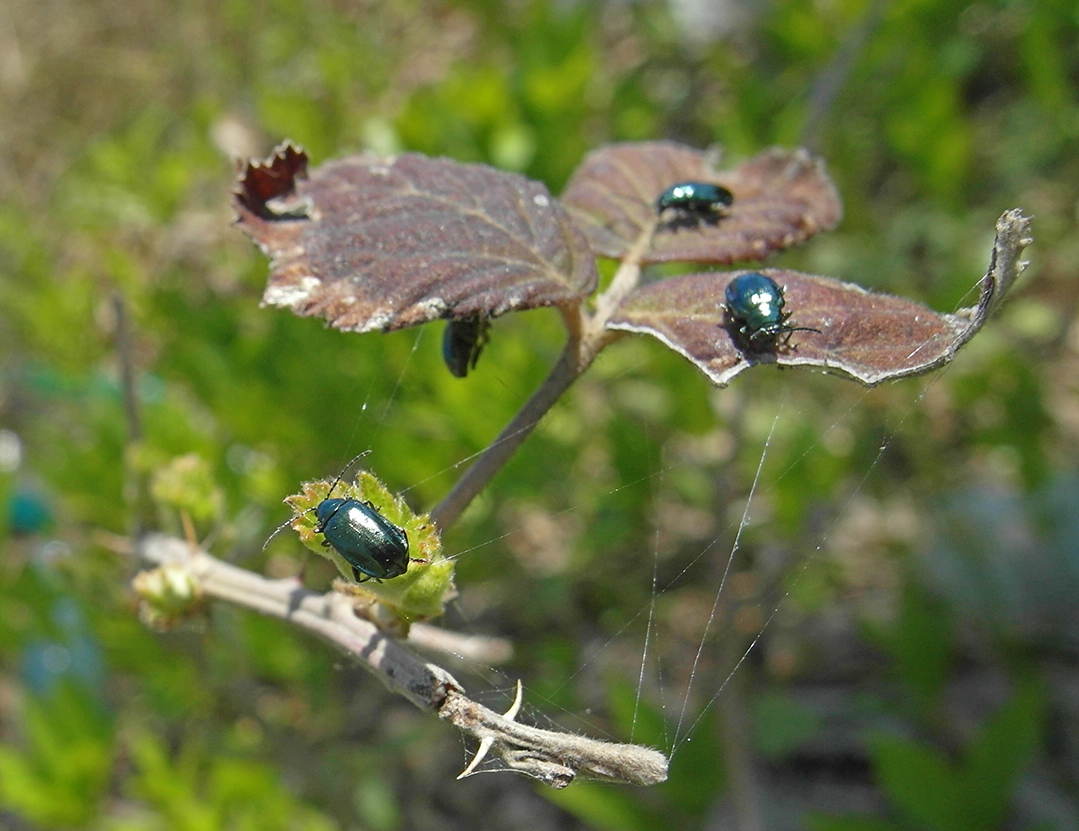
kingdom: Animalia
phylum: Arthropoda
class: Insecta
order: Coleoptera
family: Chrysomelidae
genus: Altica
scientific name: Altica brevicollis
